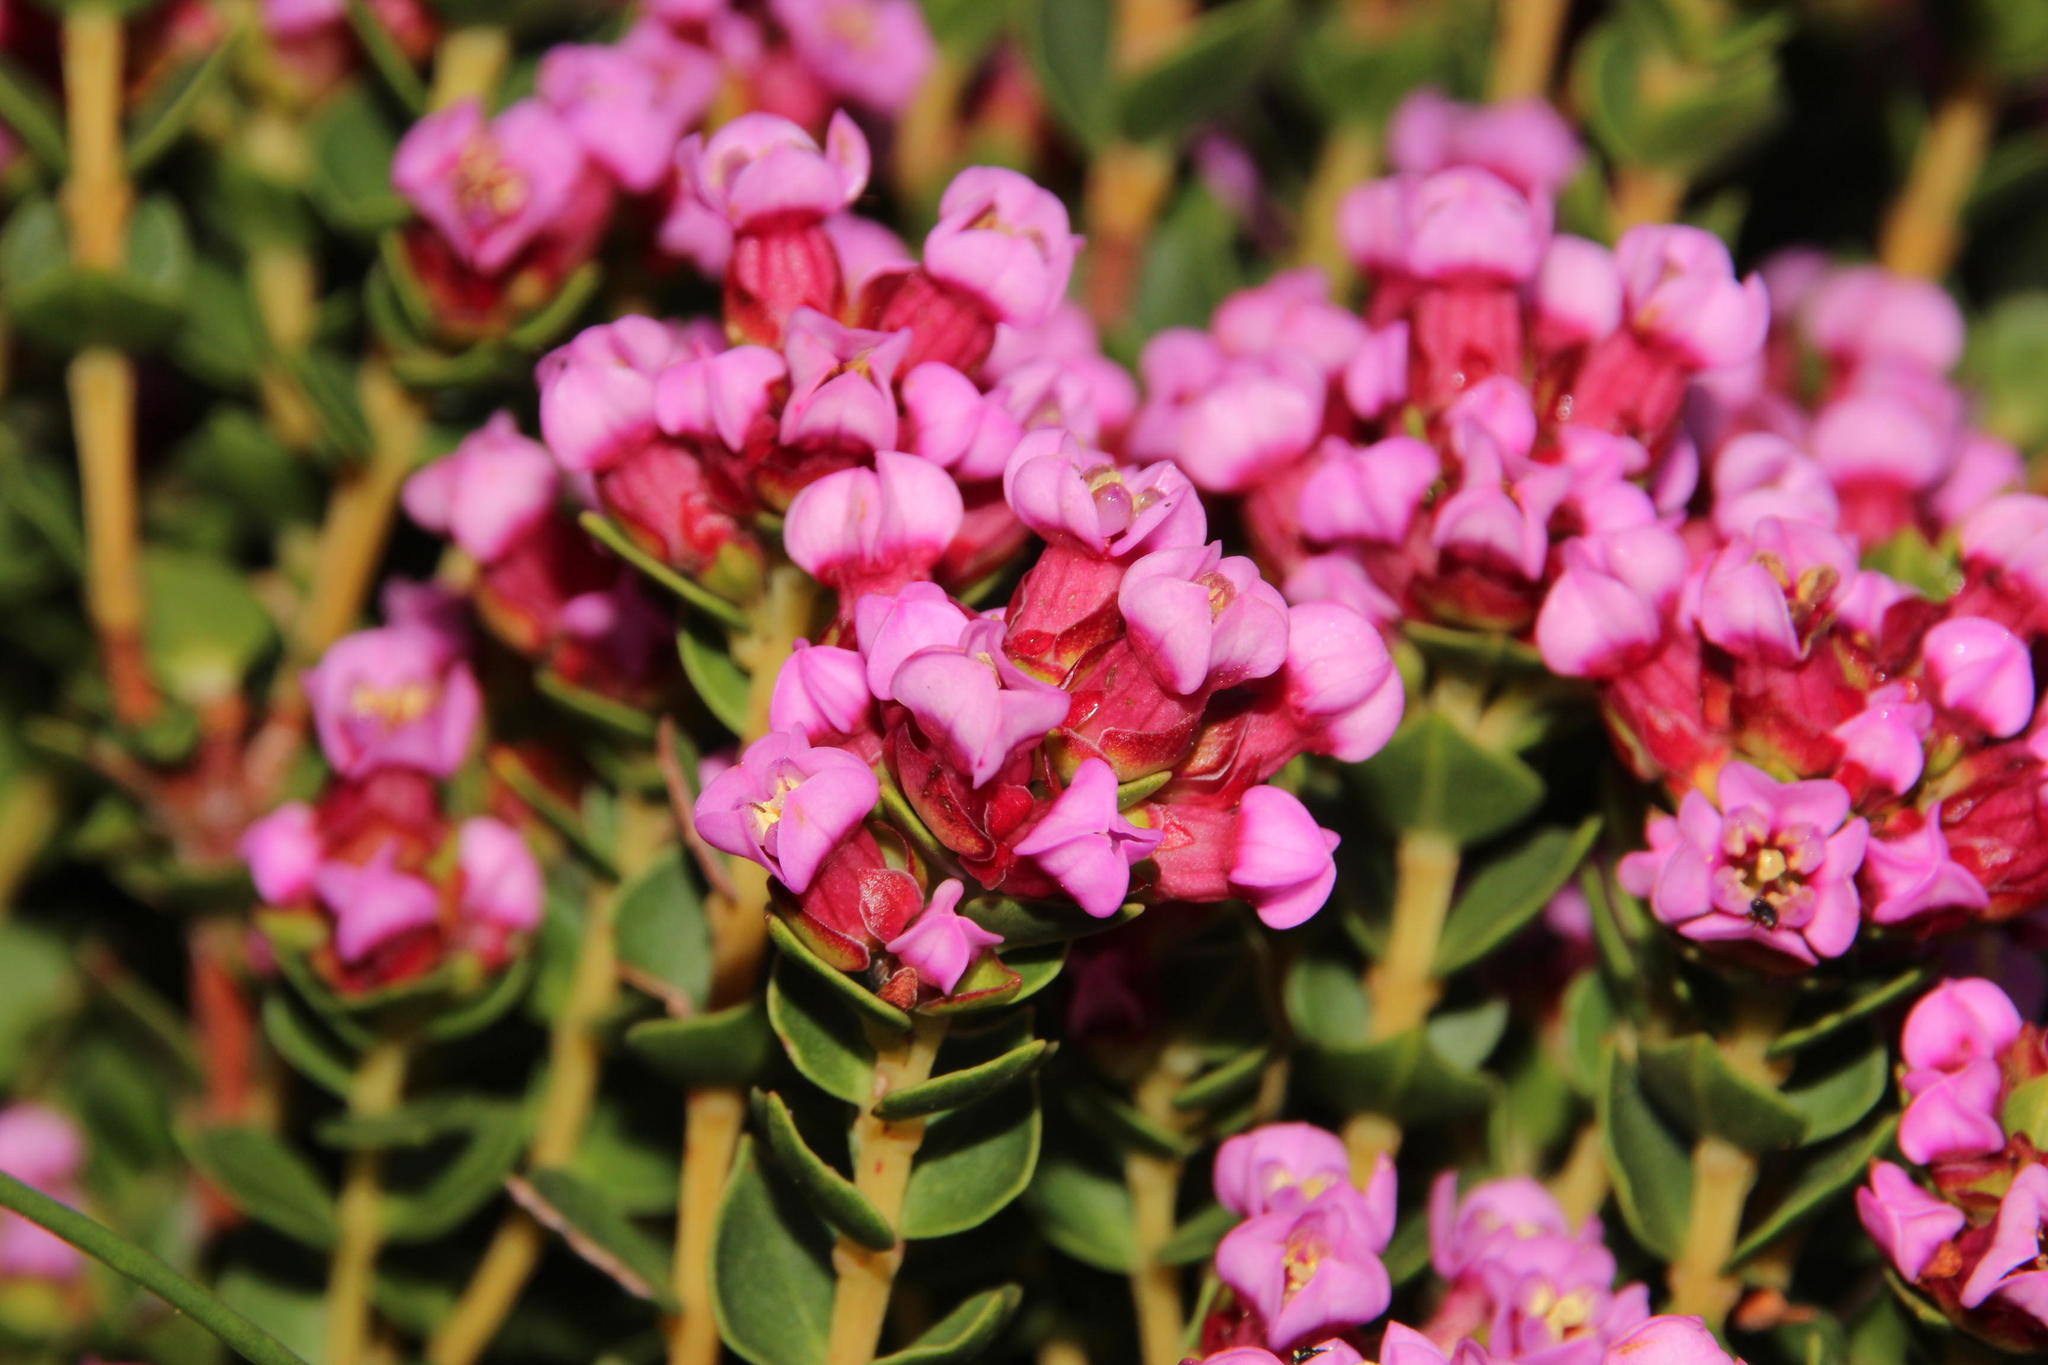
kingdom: Plantae
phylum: Tracheophyta
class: Magnoliopsida
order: Myrtales
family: Penaeaceae
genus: Brachysiphon
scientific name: Brachysiphon fucatus
